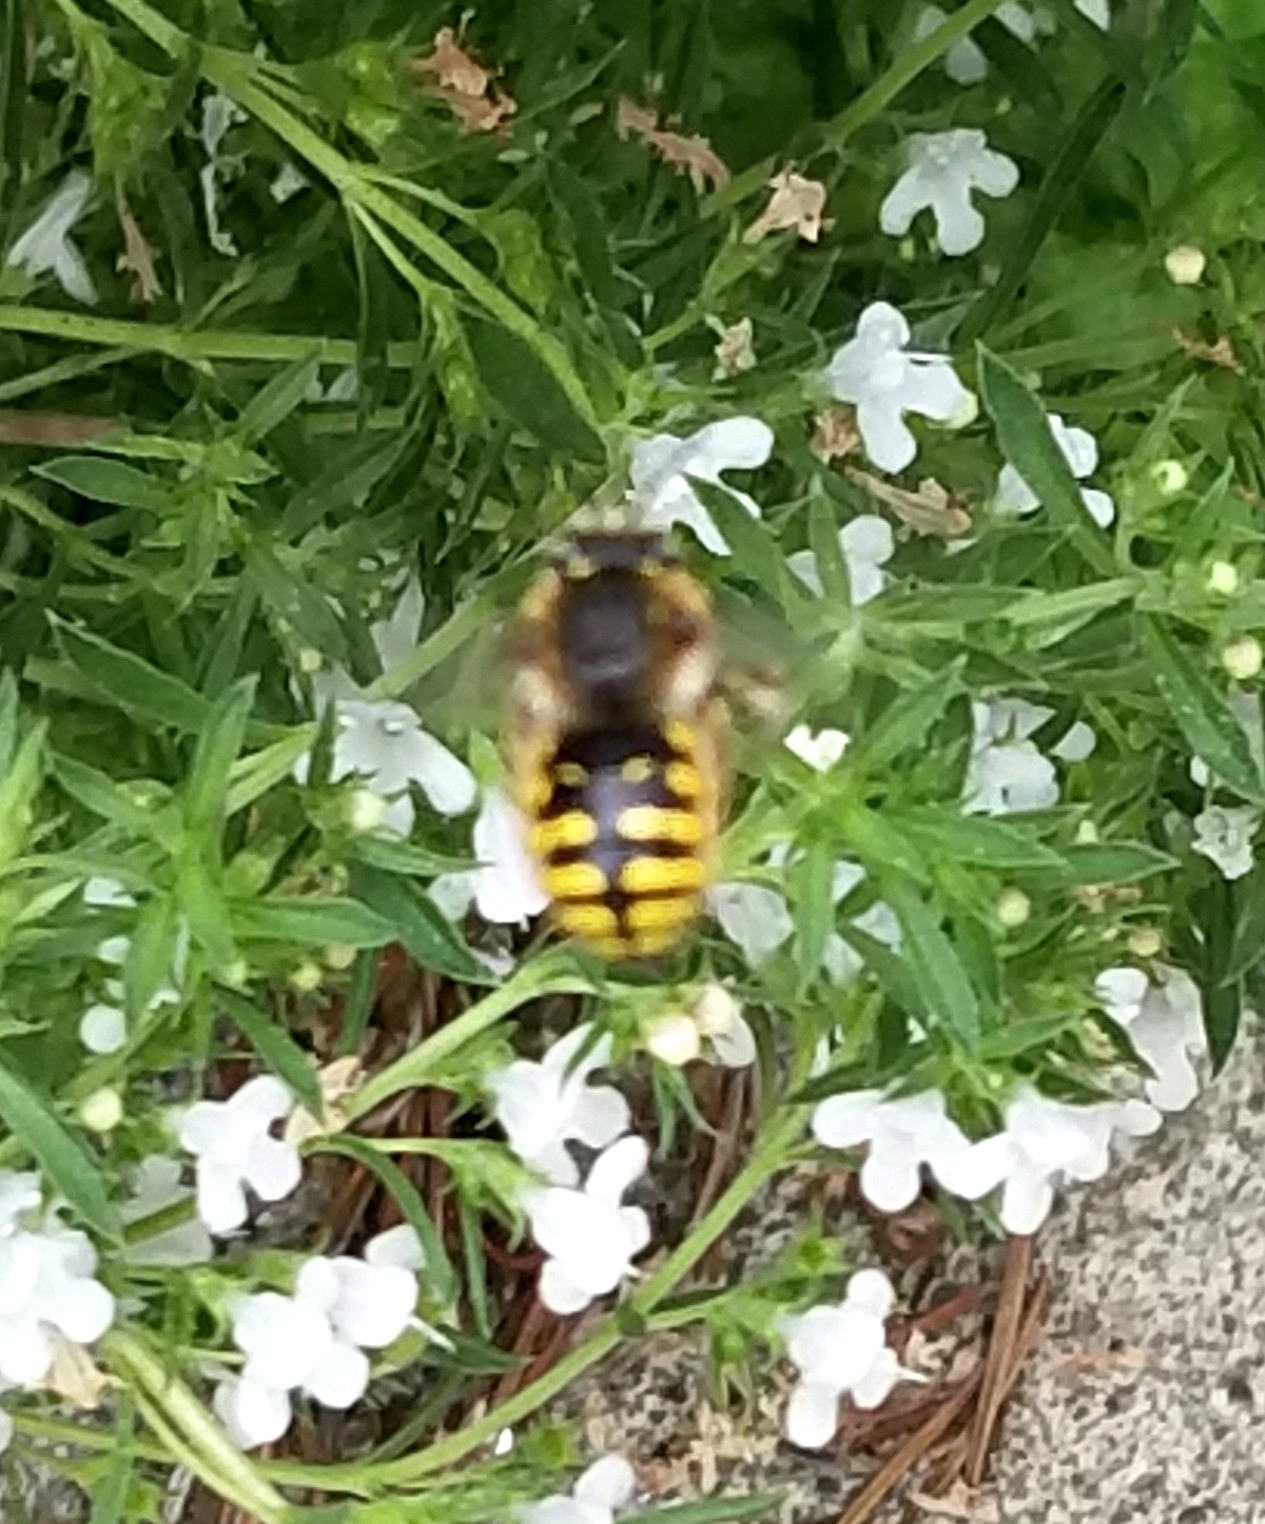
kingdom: Animalia
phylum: Arthropoda
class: Insecta
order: Hymenoptera
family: Megachilidae
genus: Anthidium
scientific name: Anthidium manicatum
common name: Wool carder bee
